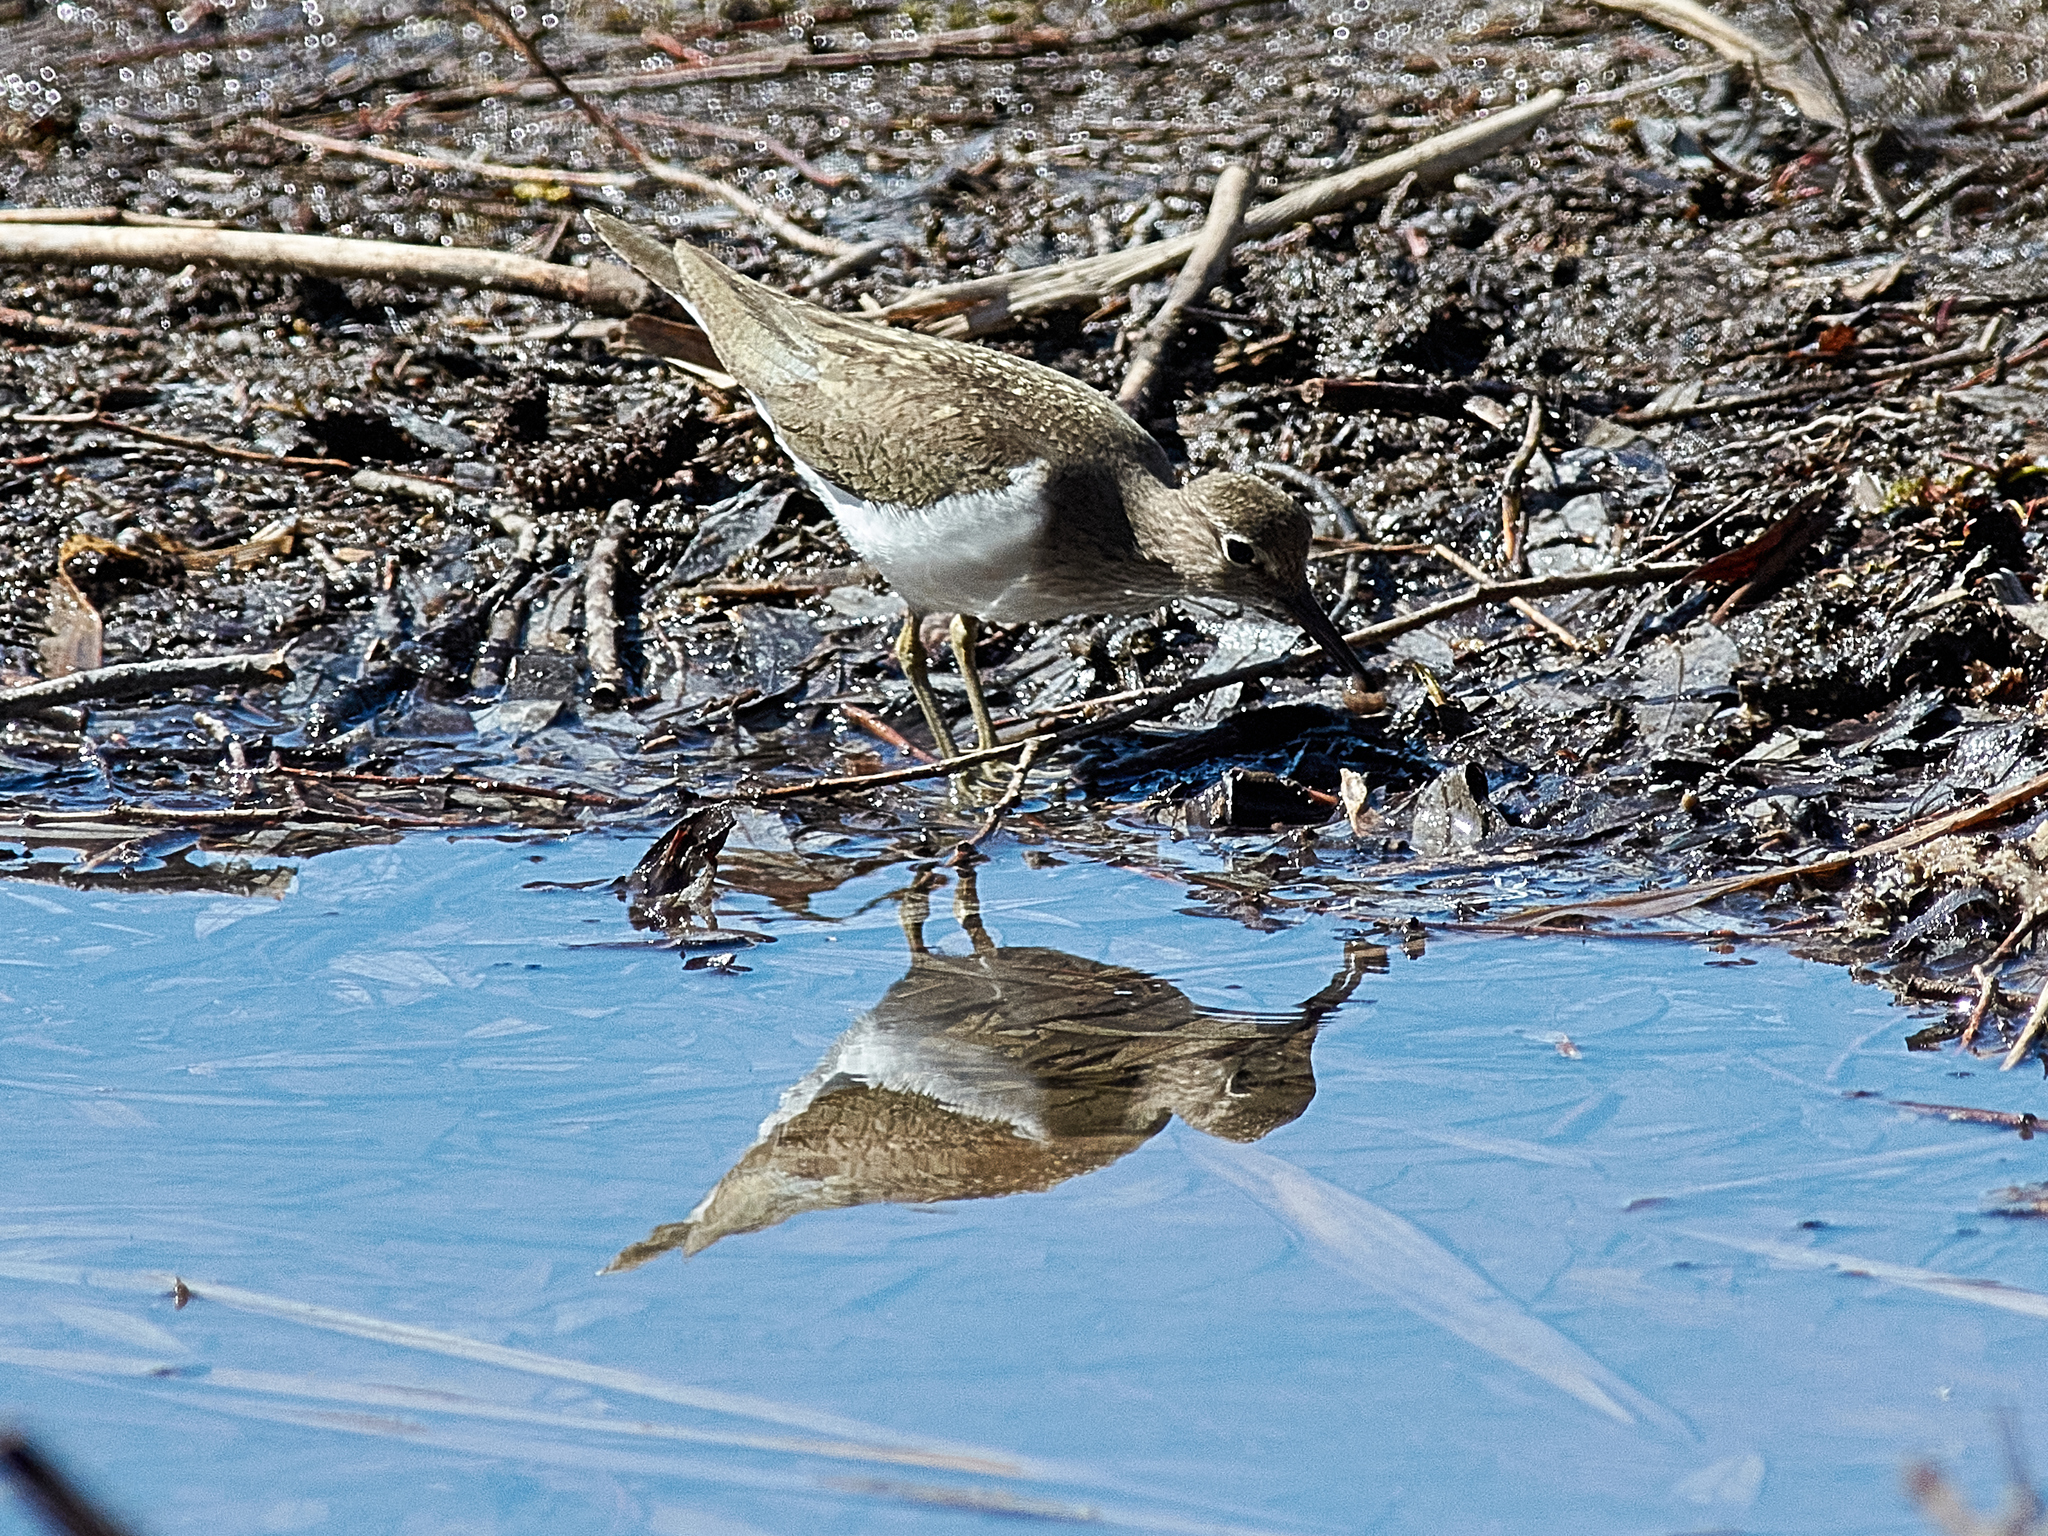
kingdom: Animalia
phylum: Chordata
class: Aves
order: Charadriiformes
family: Scolopacidae
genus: Actitis
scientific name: Actitis hypoleucos
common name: Common sandpiper
